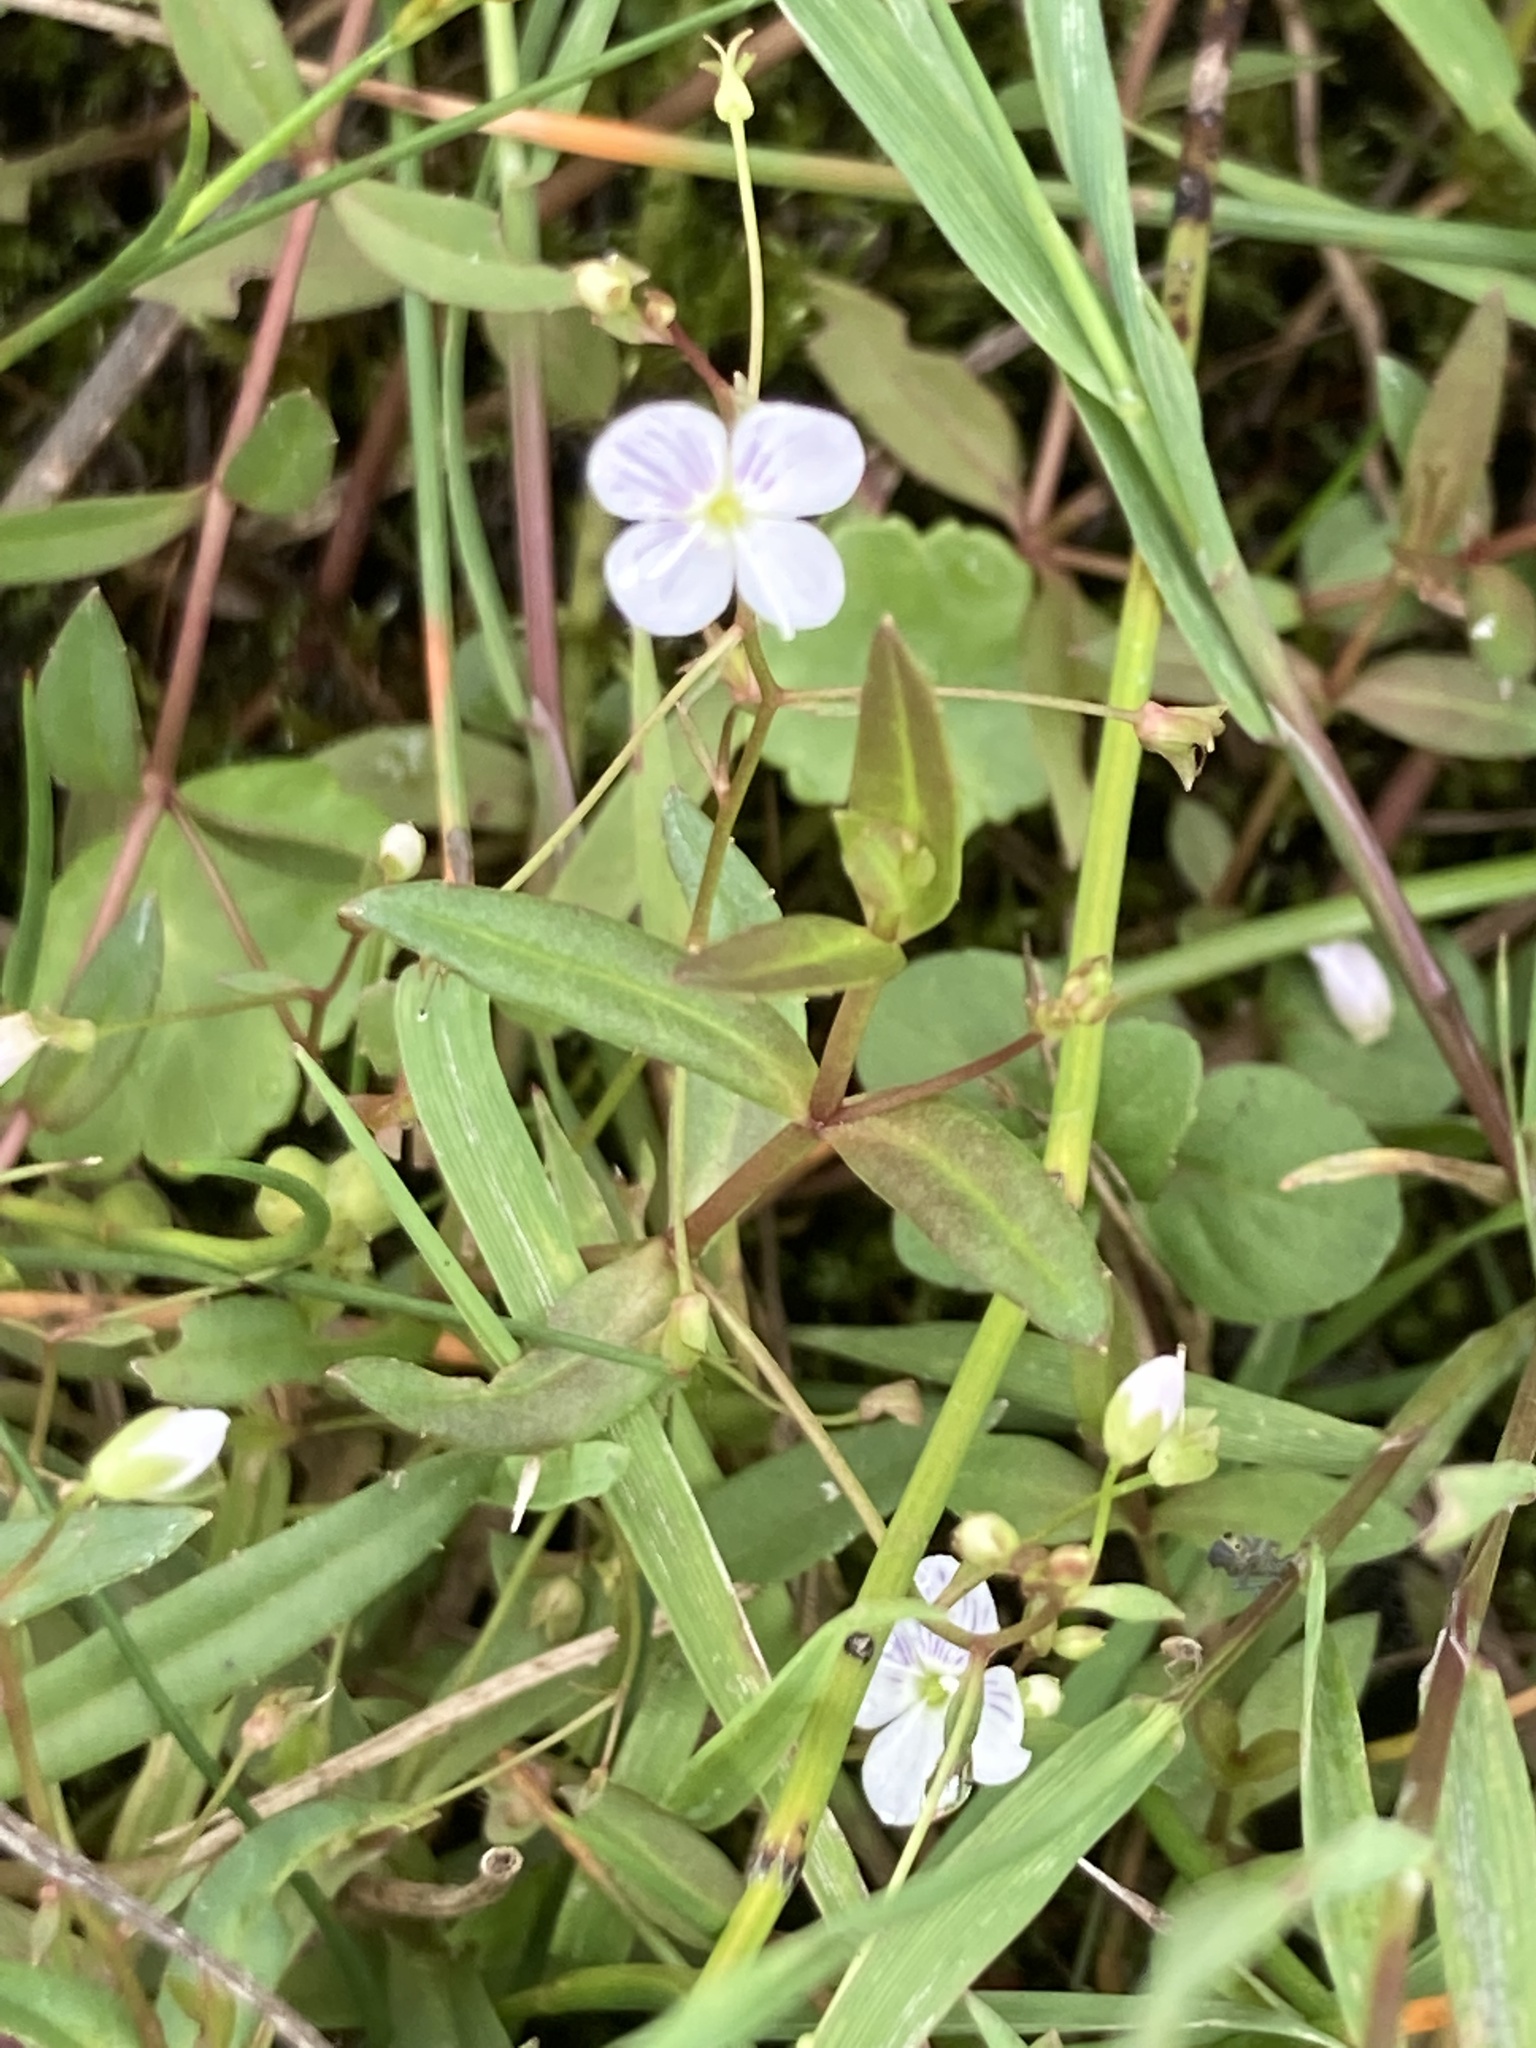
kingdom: Plantae
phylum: Tracheophyta
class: Magnoliopsida
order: Lamiales
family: Plantaginaceae
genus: Veronica
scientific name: Veronica scutellata
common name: Marsh speedwell
